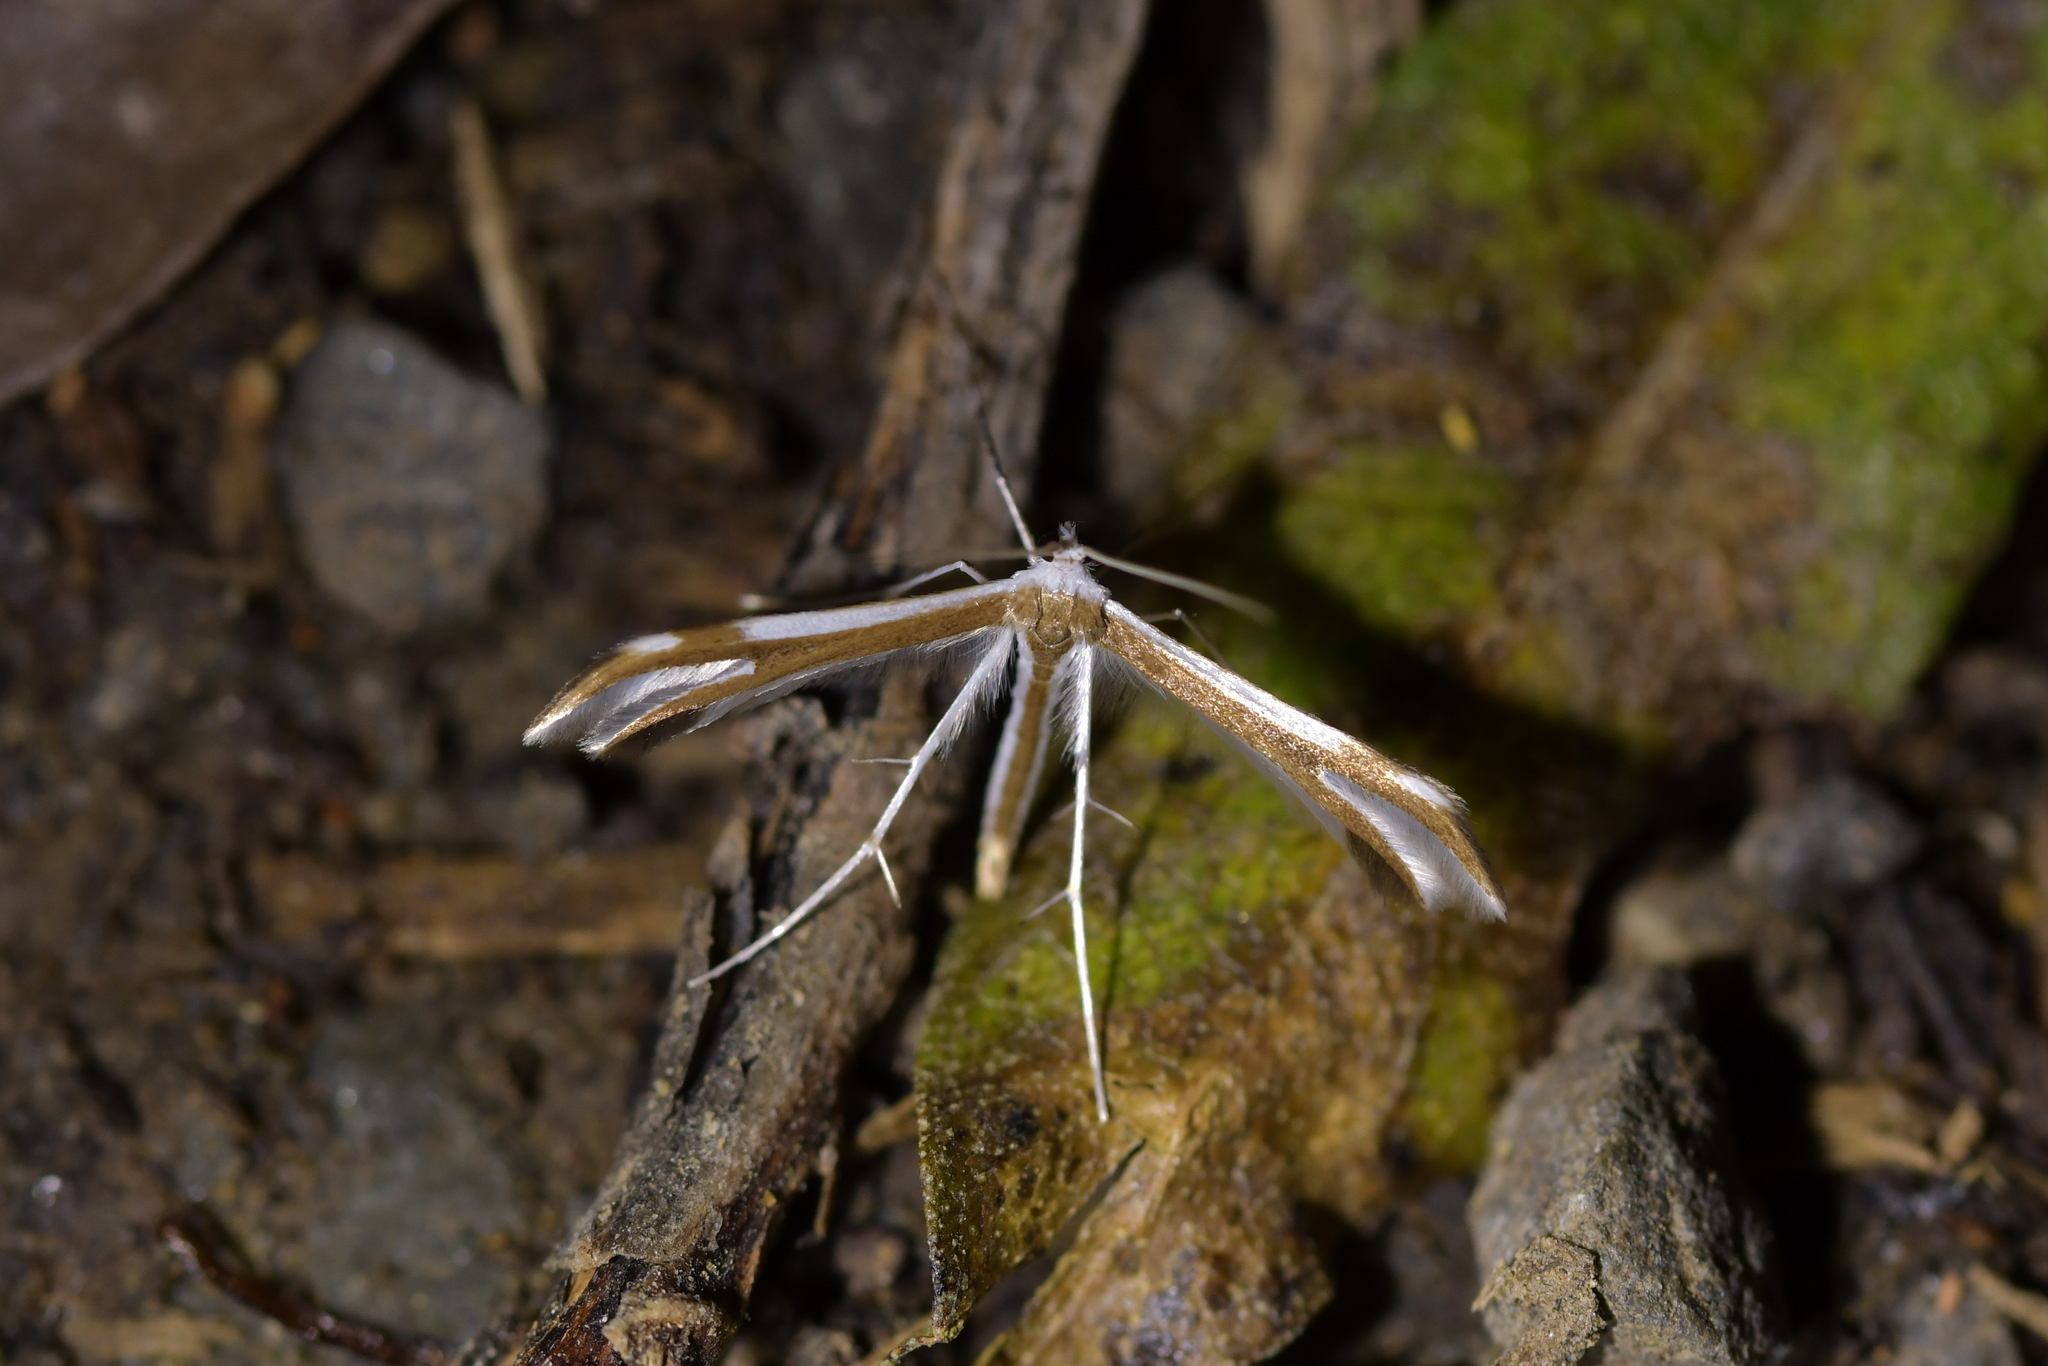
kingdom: Animalia
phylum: Arthropoda
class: Insecta
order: Lepidoptera
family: Pterophoridae
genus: Pterophorus
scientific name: Pterophorus furcatalis
